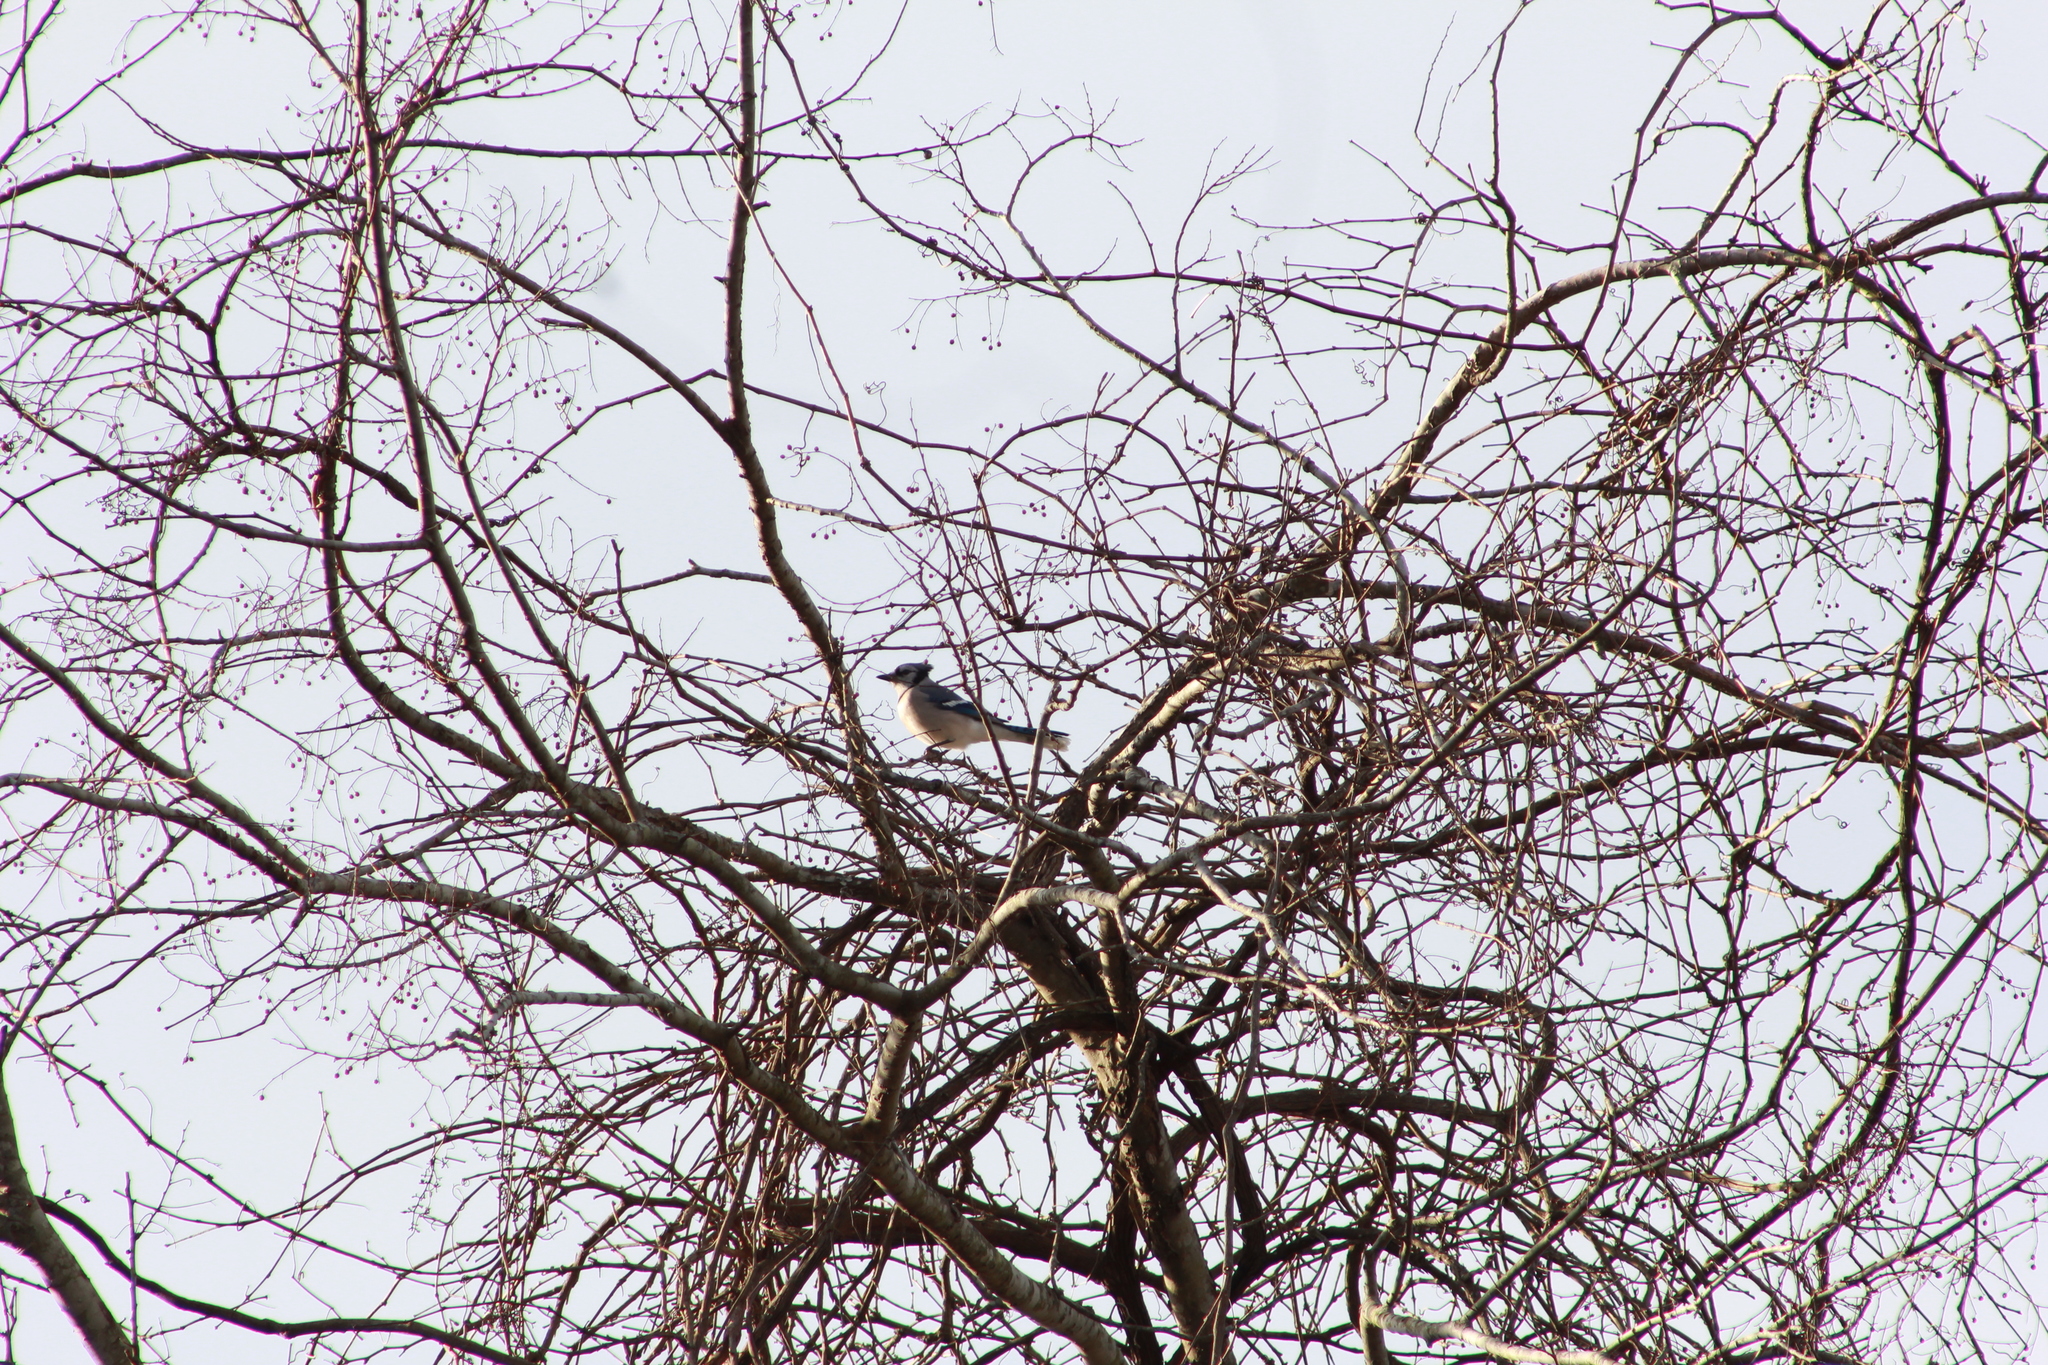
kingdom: Animalia
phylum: Chordata
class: Aves
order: Passeriformes
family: Corvidae
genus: Cyanocitta
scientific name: Cyanocitta cristata
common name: Blue jay
